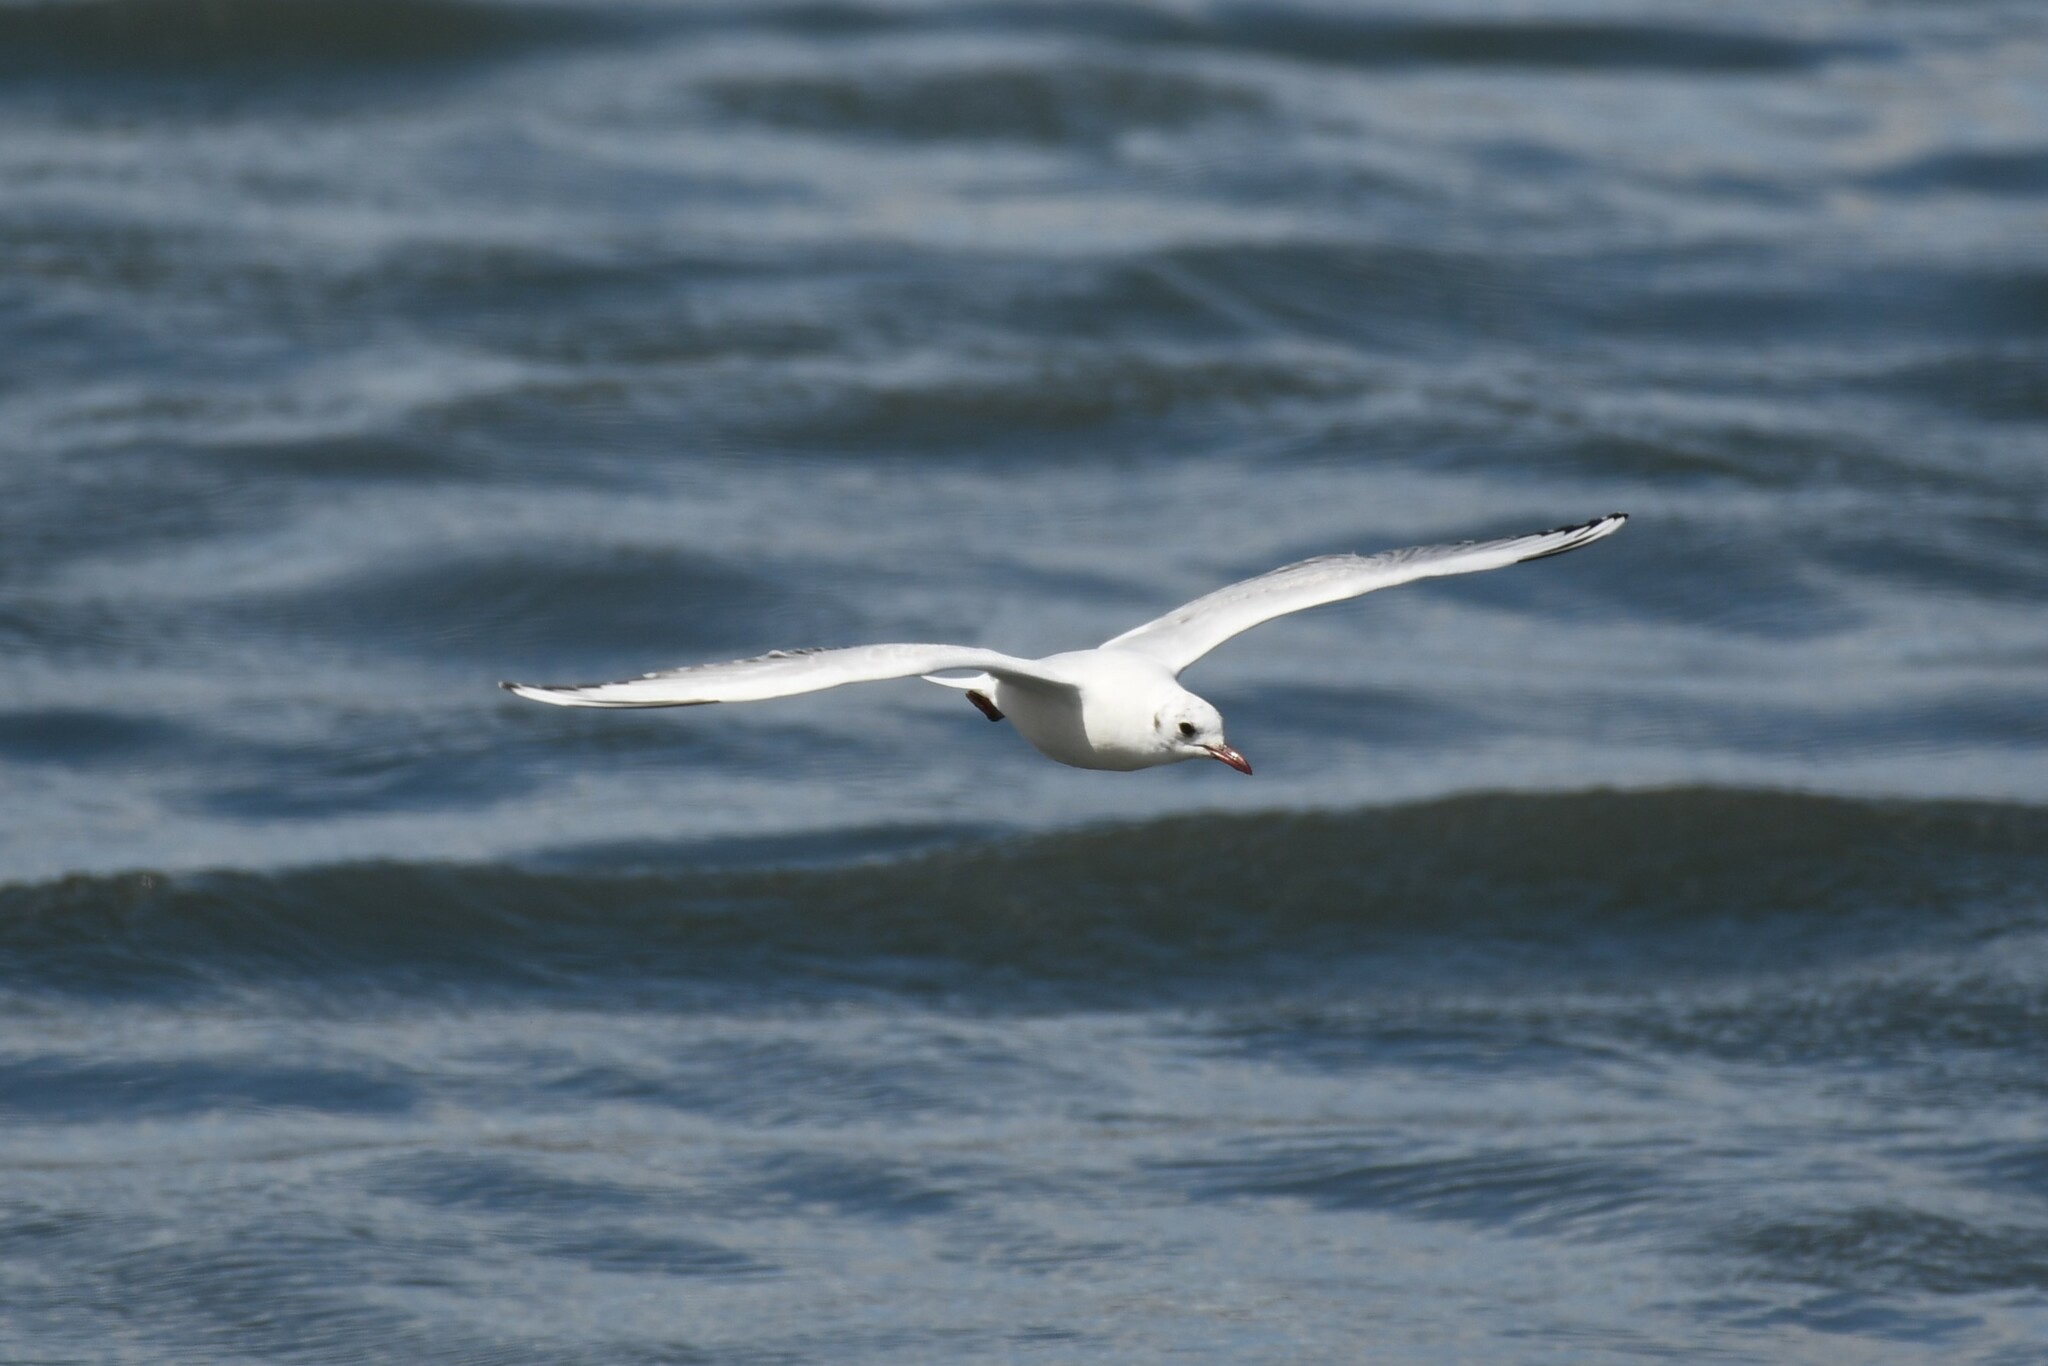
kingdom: Animalia
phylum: Chordata
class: Aves
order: Charadriiformes
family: Laridae
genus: Chroicocephalus
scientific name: Chroicocephalus maculipennis
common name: Brown-hooded gull
